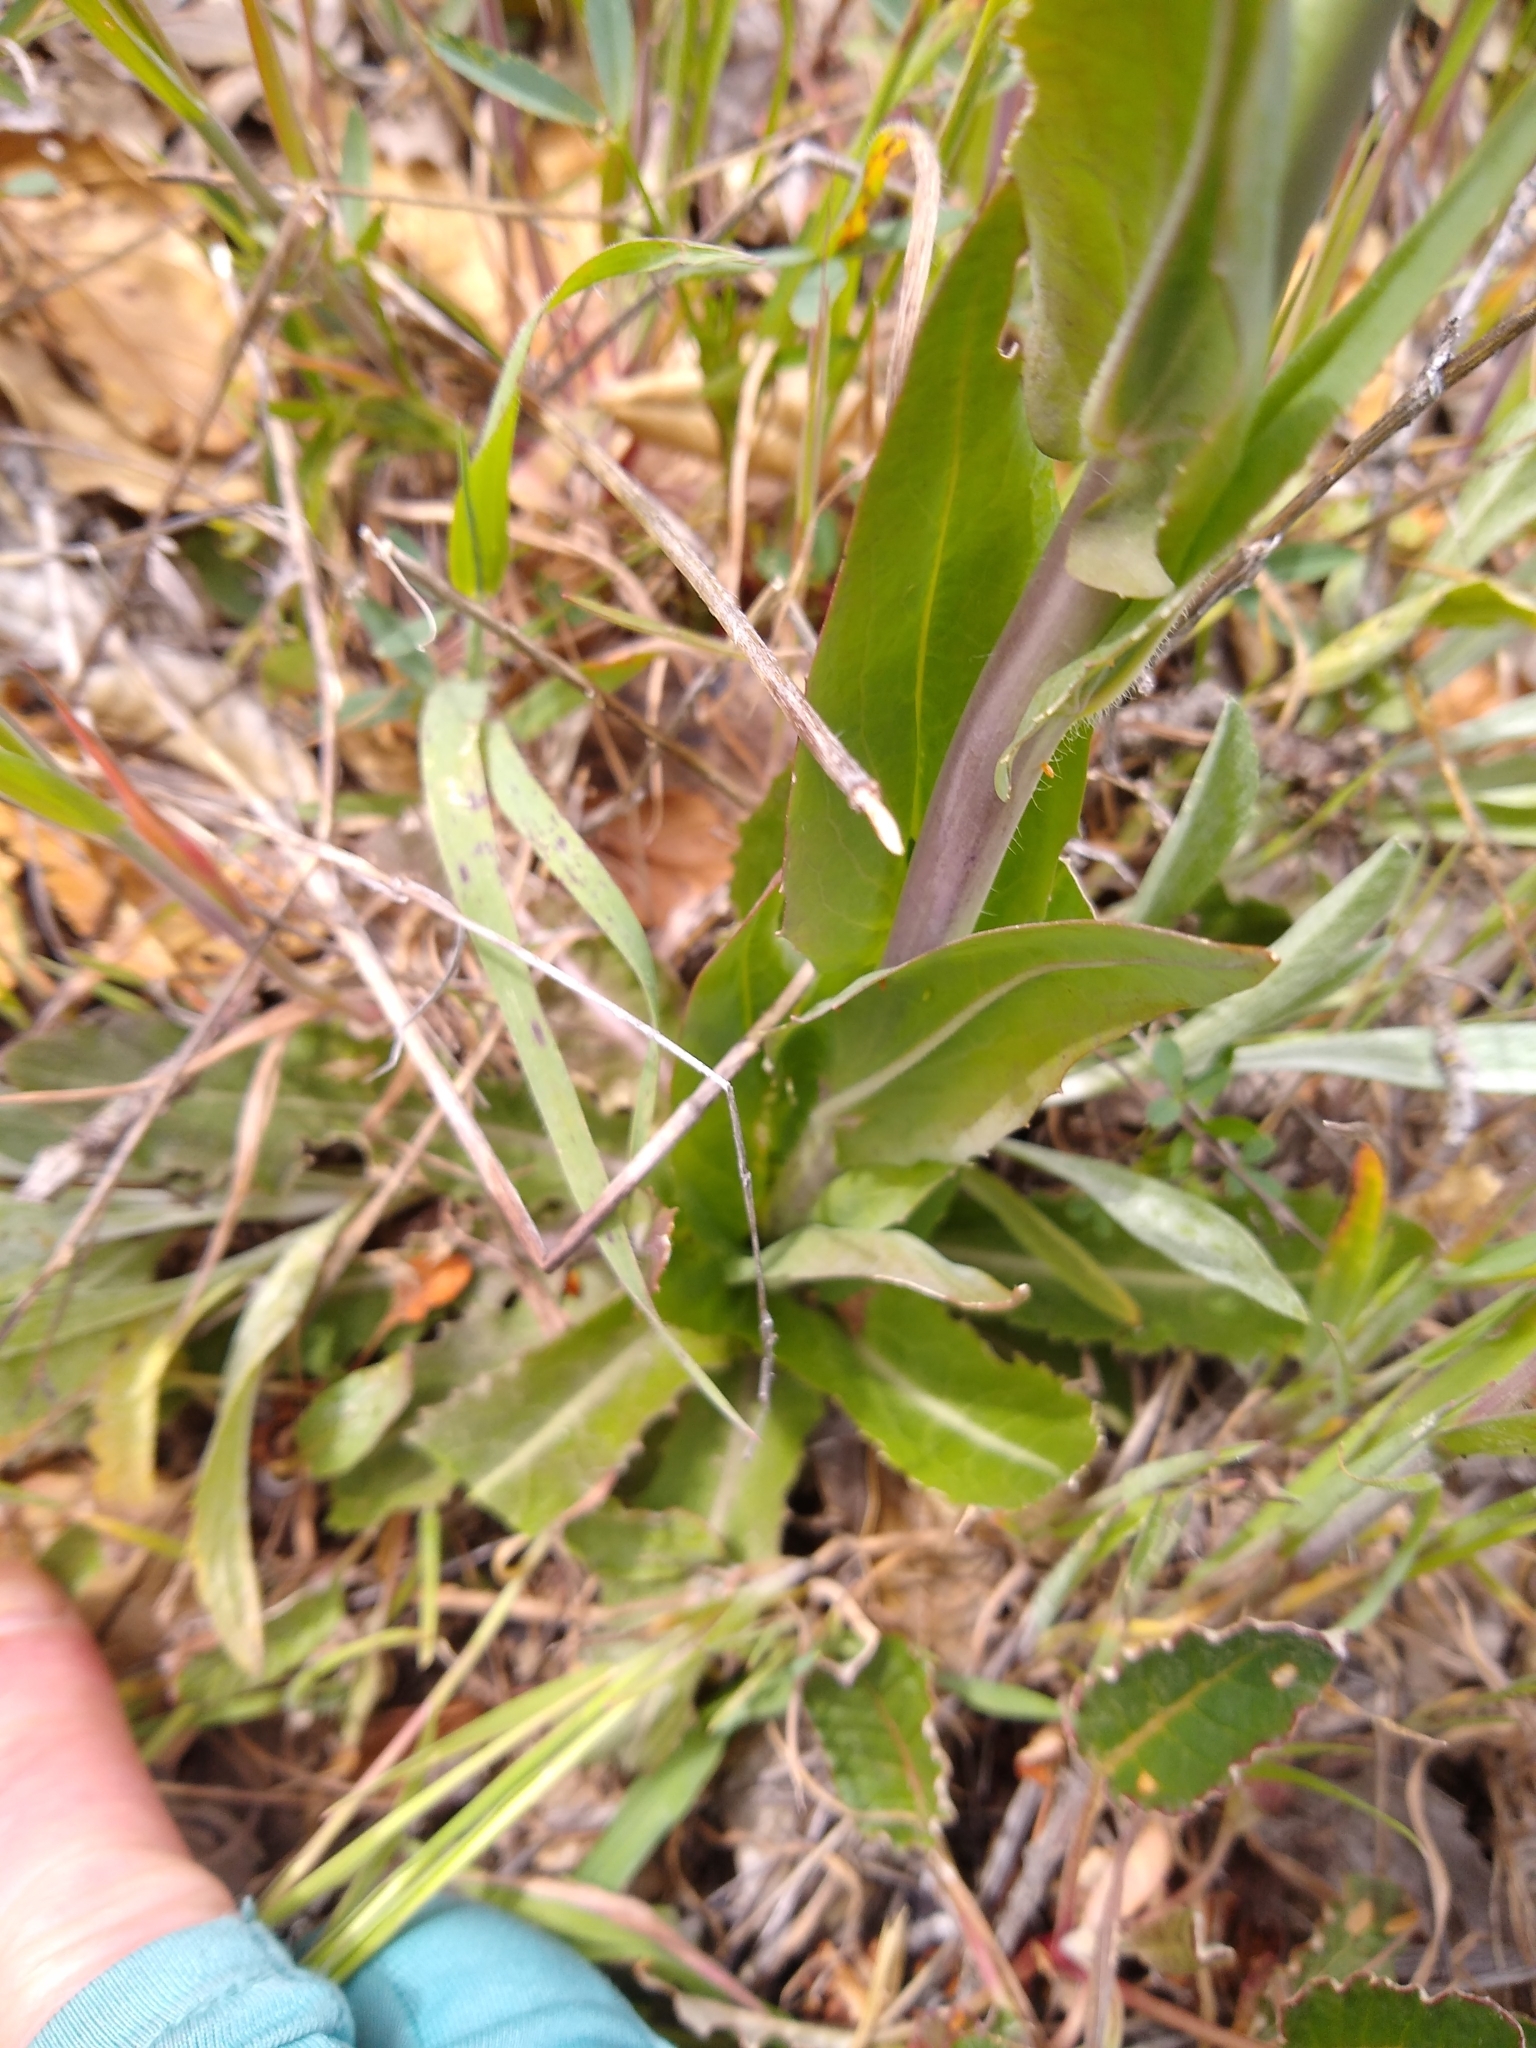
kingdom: Plantae
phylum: Tracheophyta
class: Magnoliopsida
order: Brassicales
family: Brassicaceae
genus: Turritis
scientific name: Turritis glabra
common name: Tower rockcress
